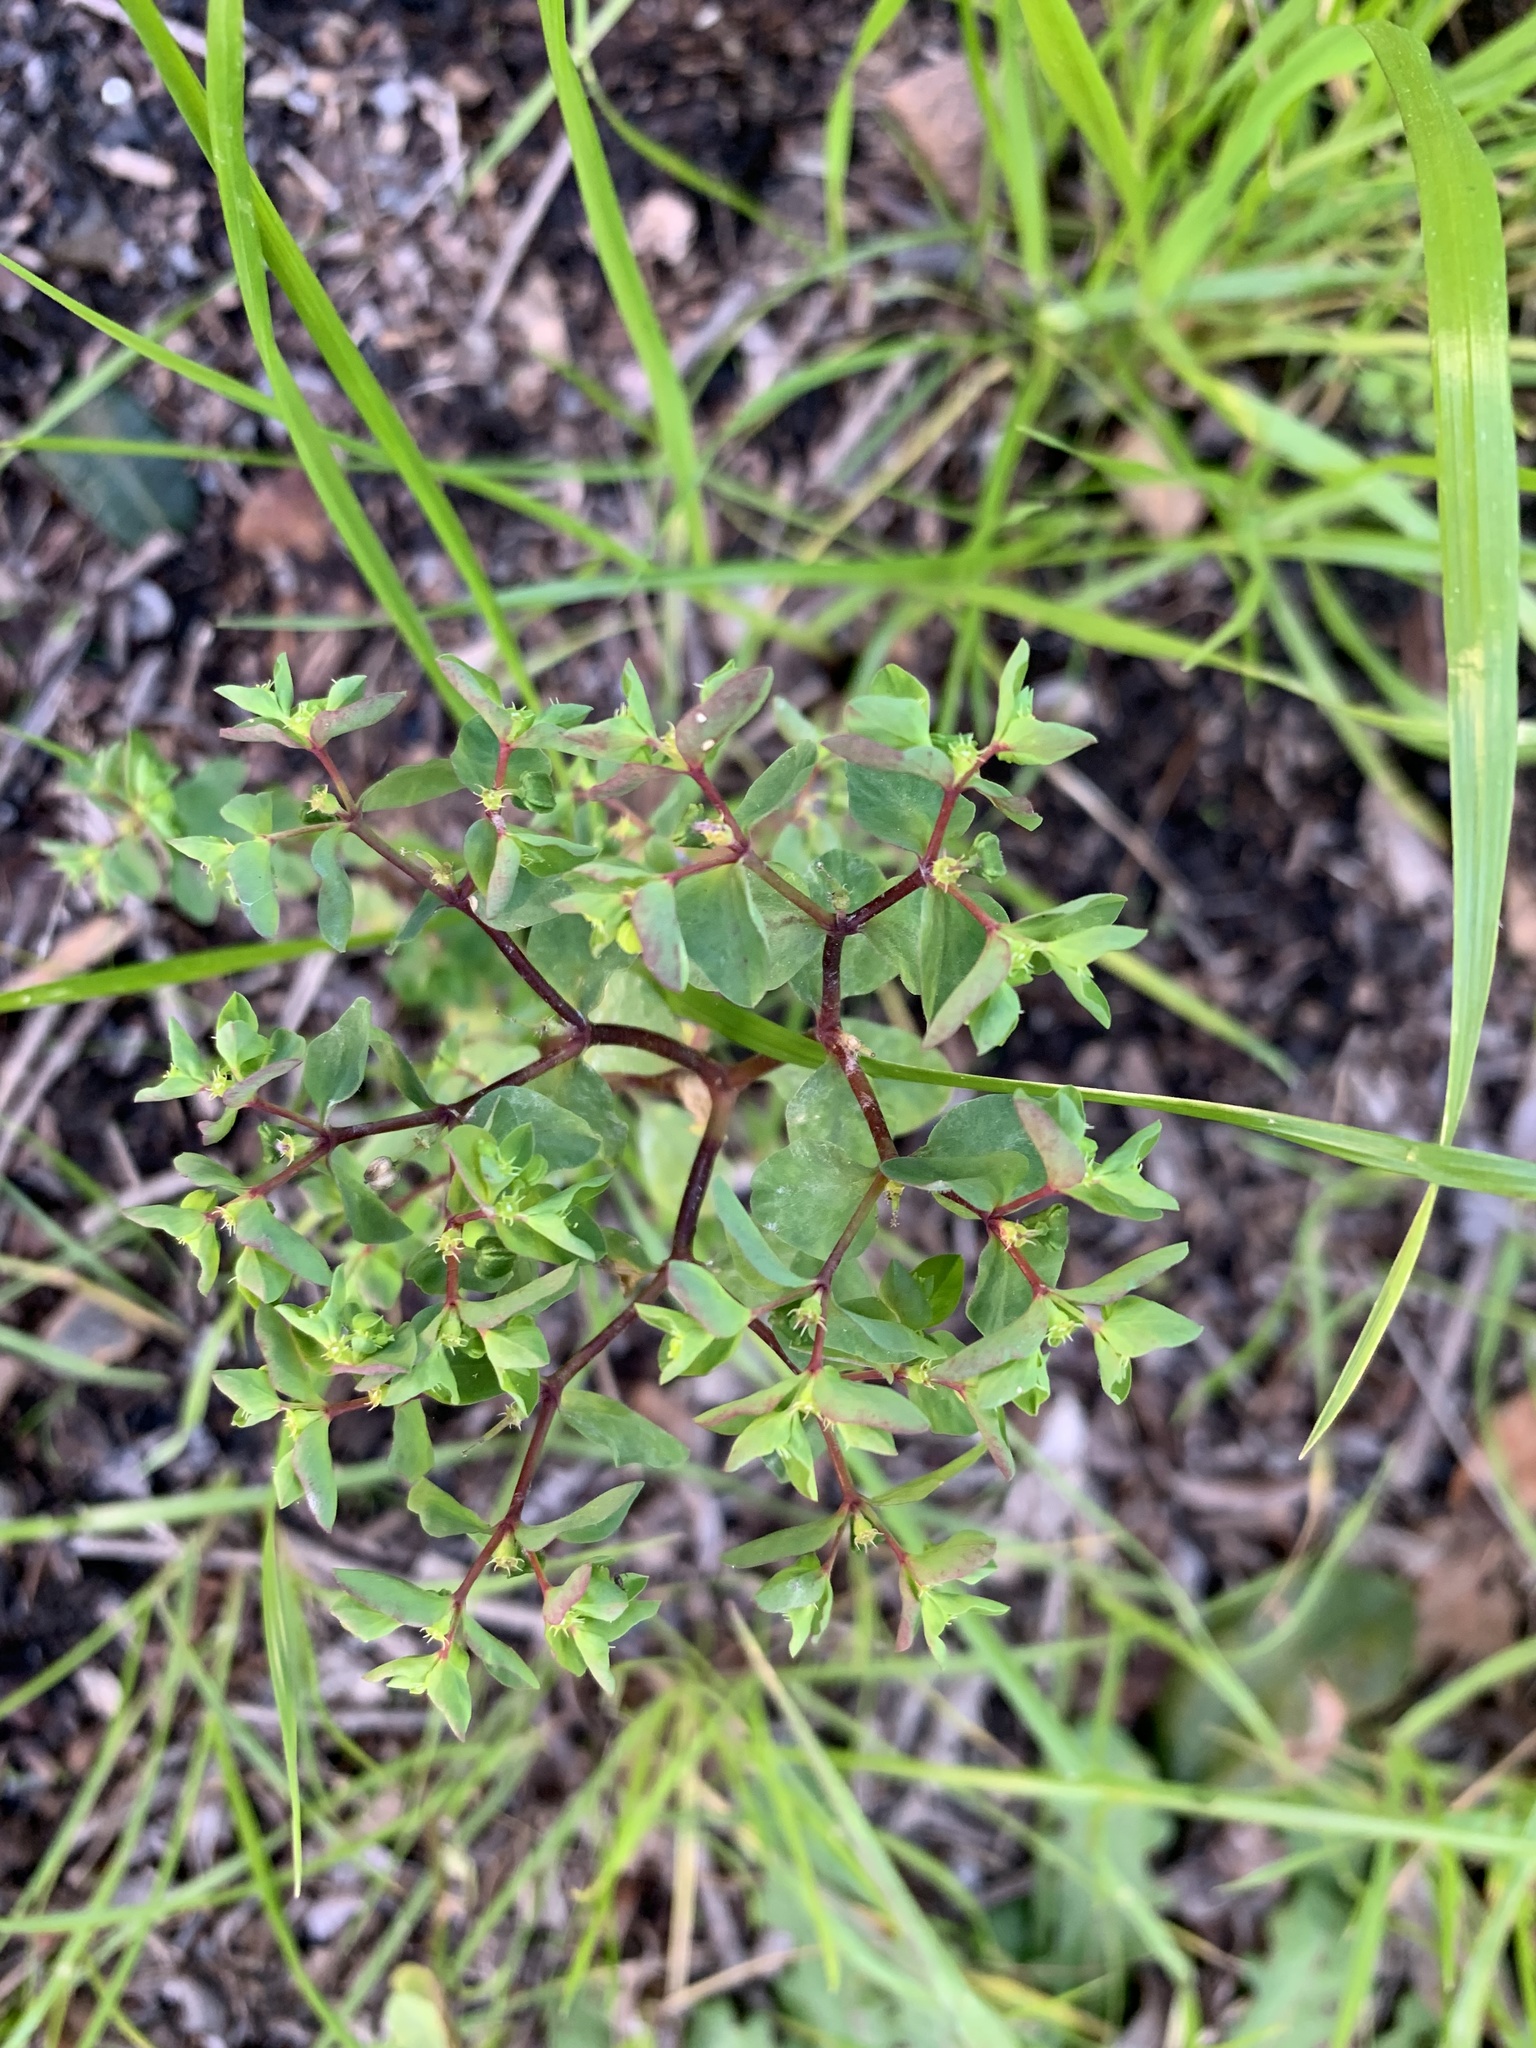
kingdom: Plantae
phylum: Tracheophyta
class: Magnoliopsida
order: Malpighiales
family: Euphorbiaceae
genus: Euphorbia
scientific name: Euphorbia peplus
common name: Petty spurge
